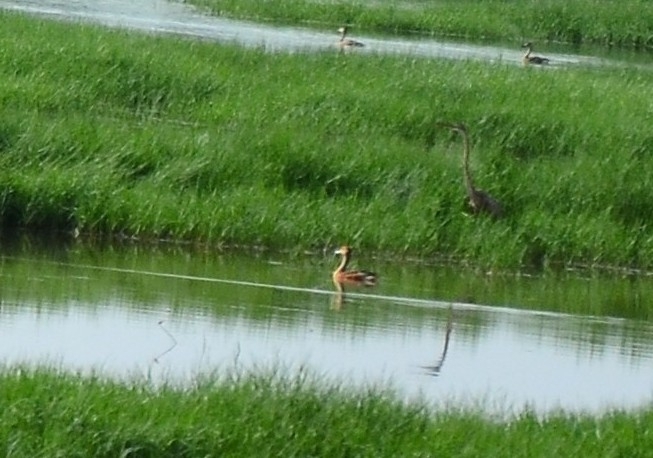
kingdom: Animalia
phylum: Chordata
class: Aves
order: Anseriformes
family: Anatidae
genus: Dendrocygna
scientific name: Dendrocygna javanica
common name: Lesser whistling-duck
